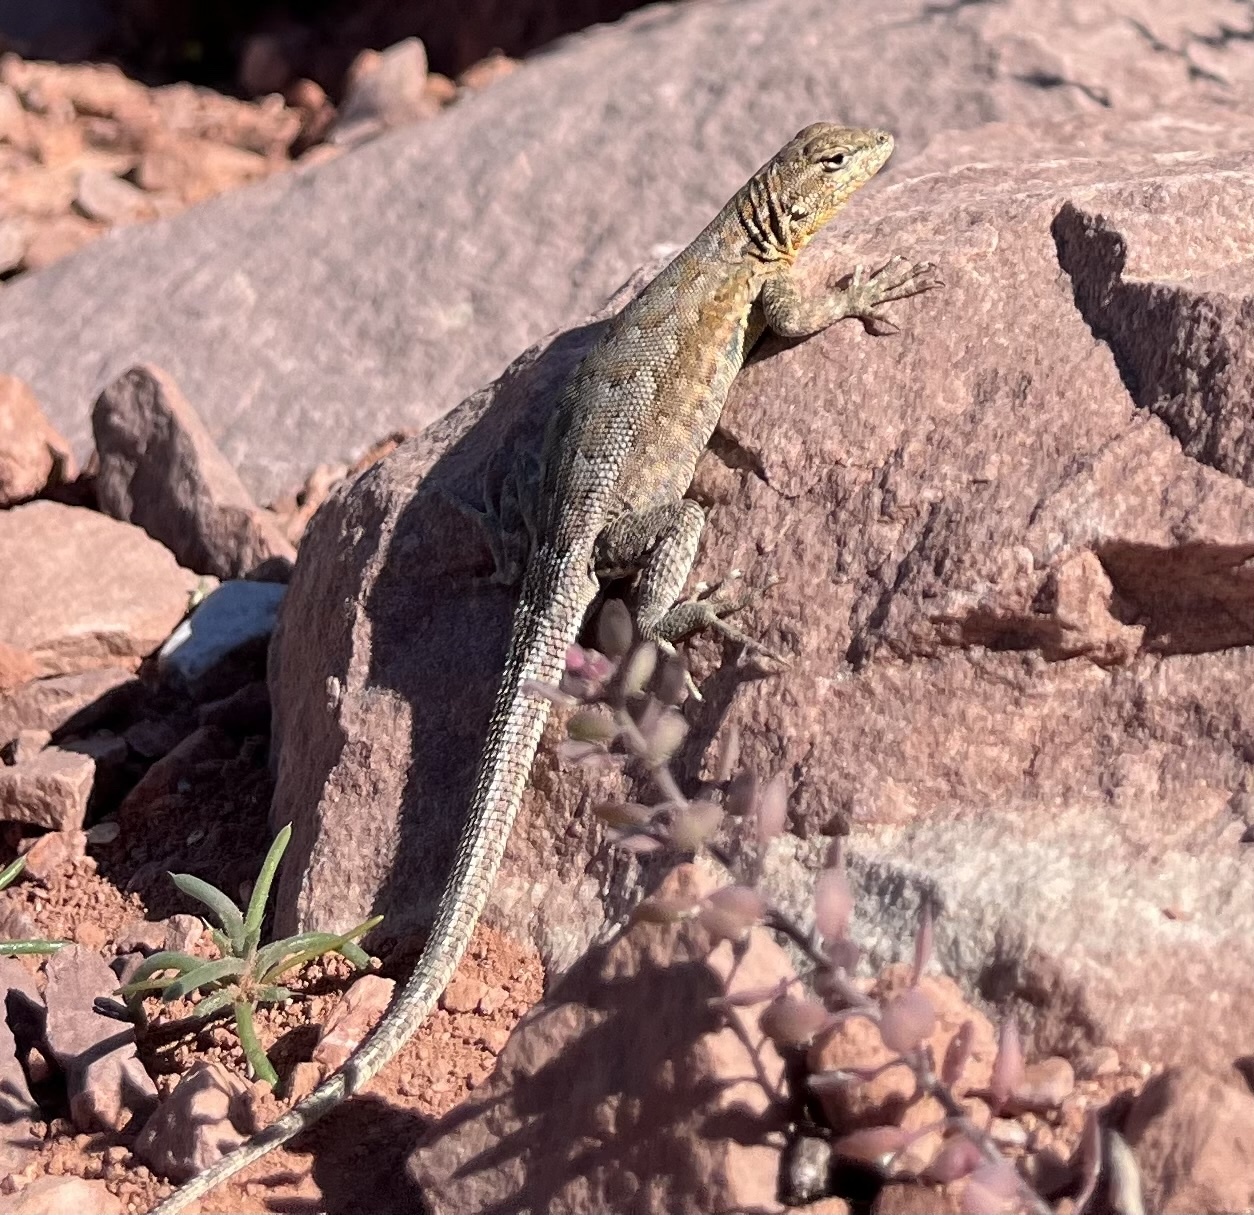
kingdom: Animalia
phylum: Chordata
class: Squamata
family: Phrynosomatidae
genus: Uta
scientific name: Uta stansburiana
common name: Side-blotched lizard
